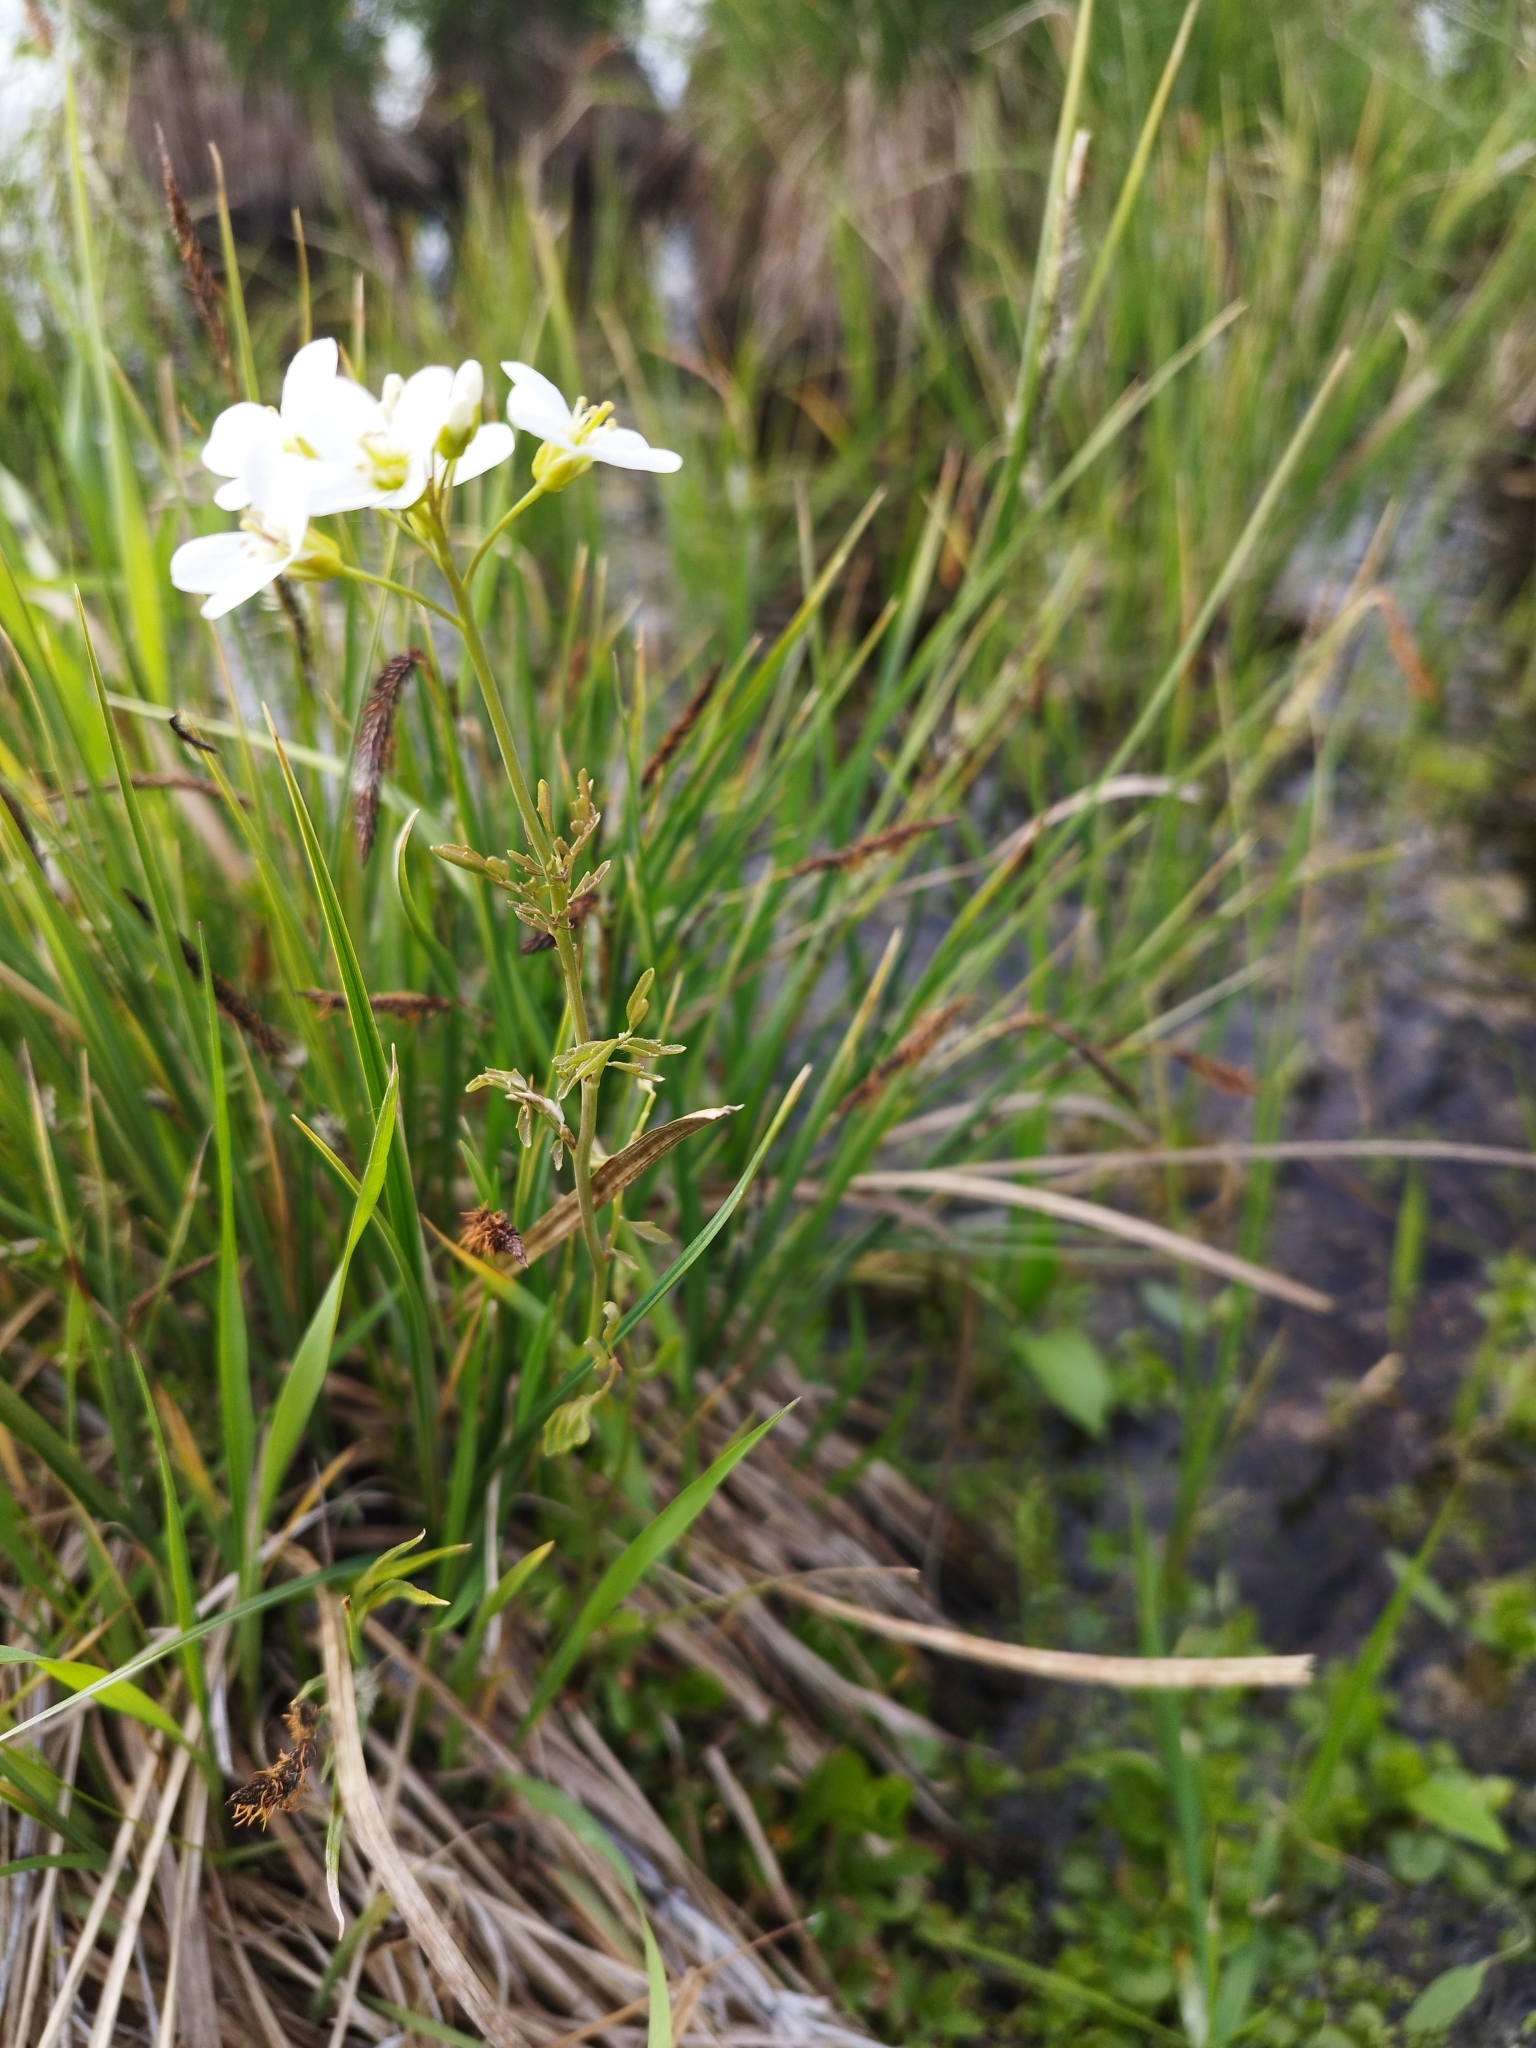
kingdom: Plantae
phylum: Tracheophyta
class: Magnoliopsida
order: Brassicales
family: Brassicaceae
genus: Cardamine
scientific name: Cardamine dentata
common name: Toothed bittercress
